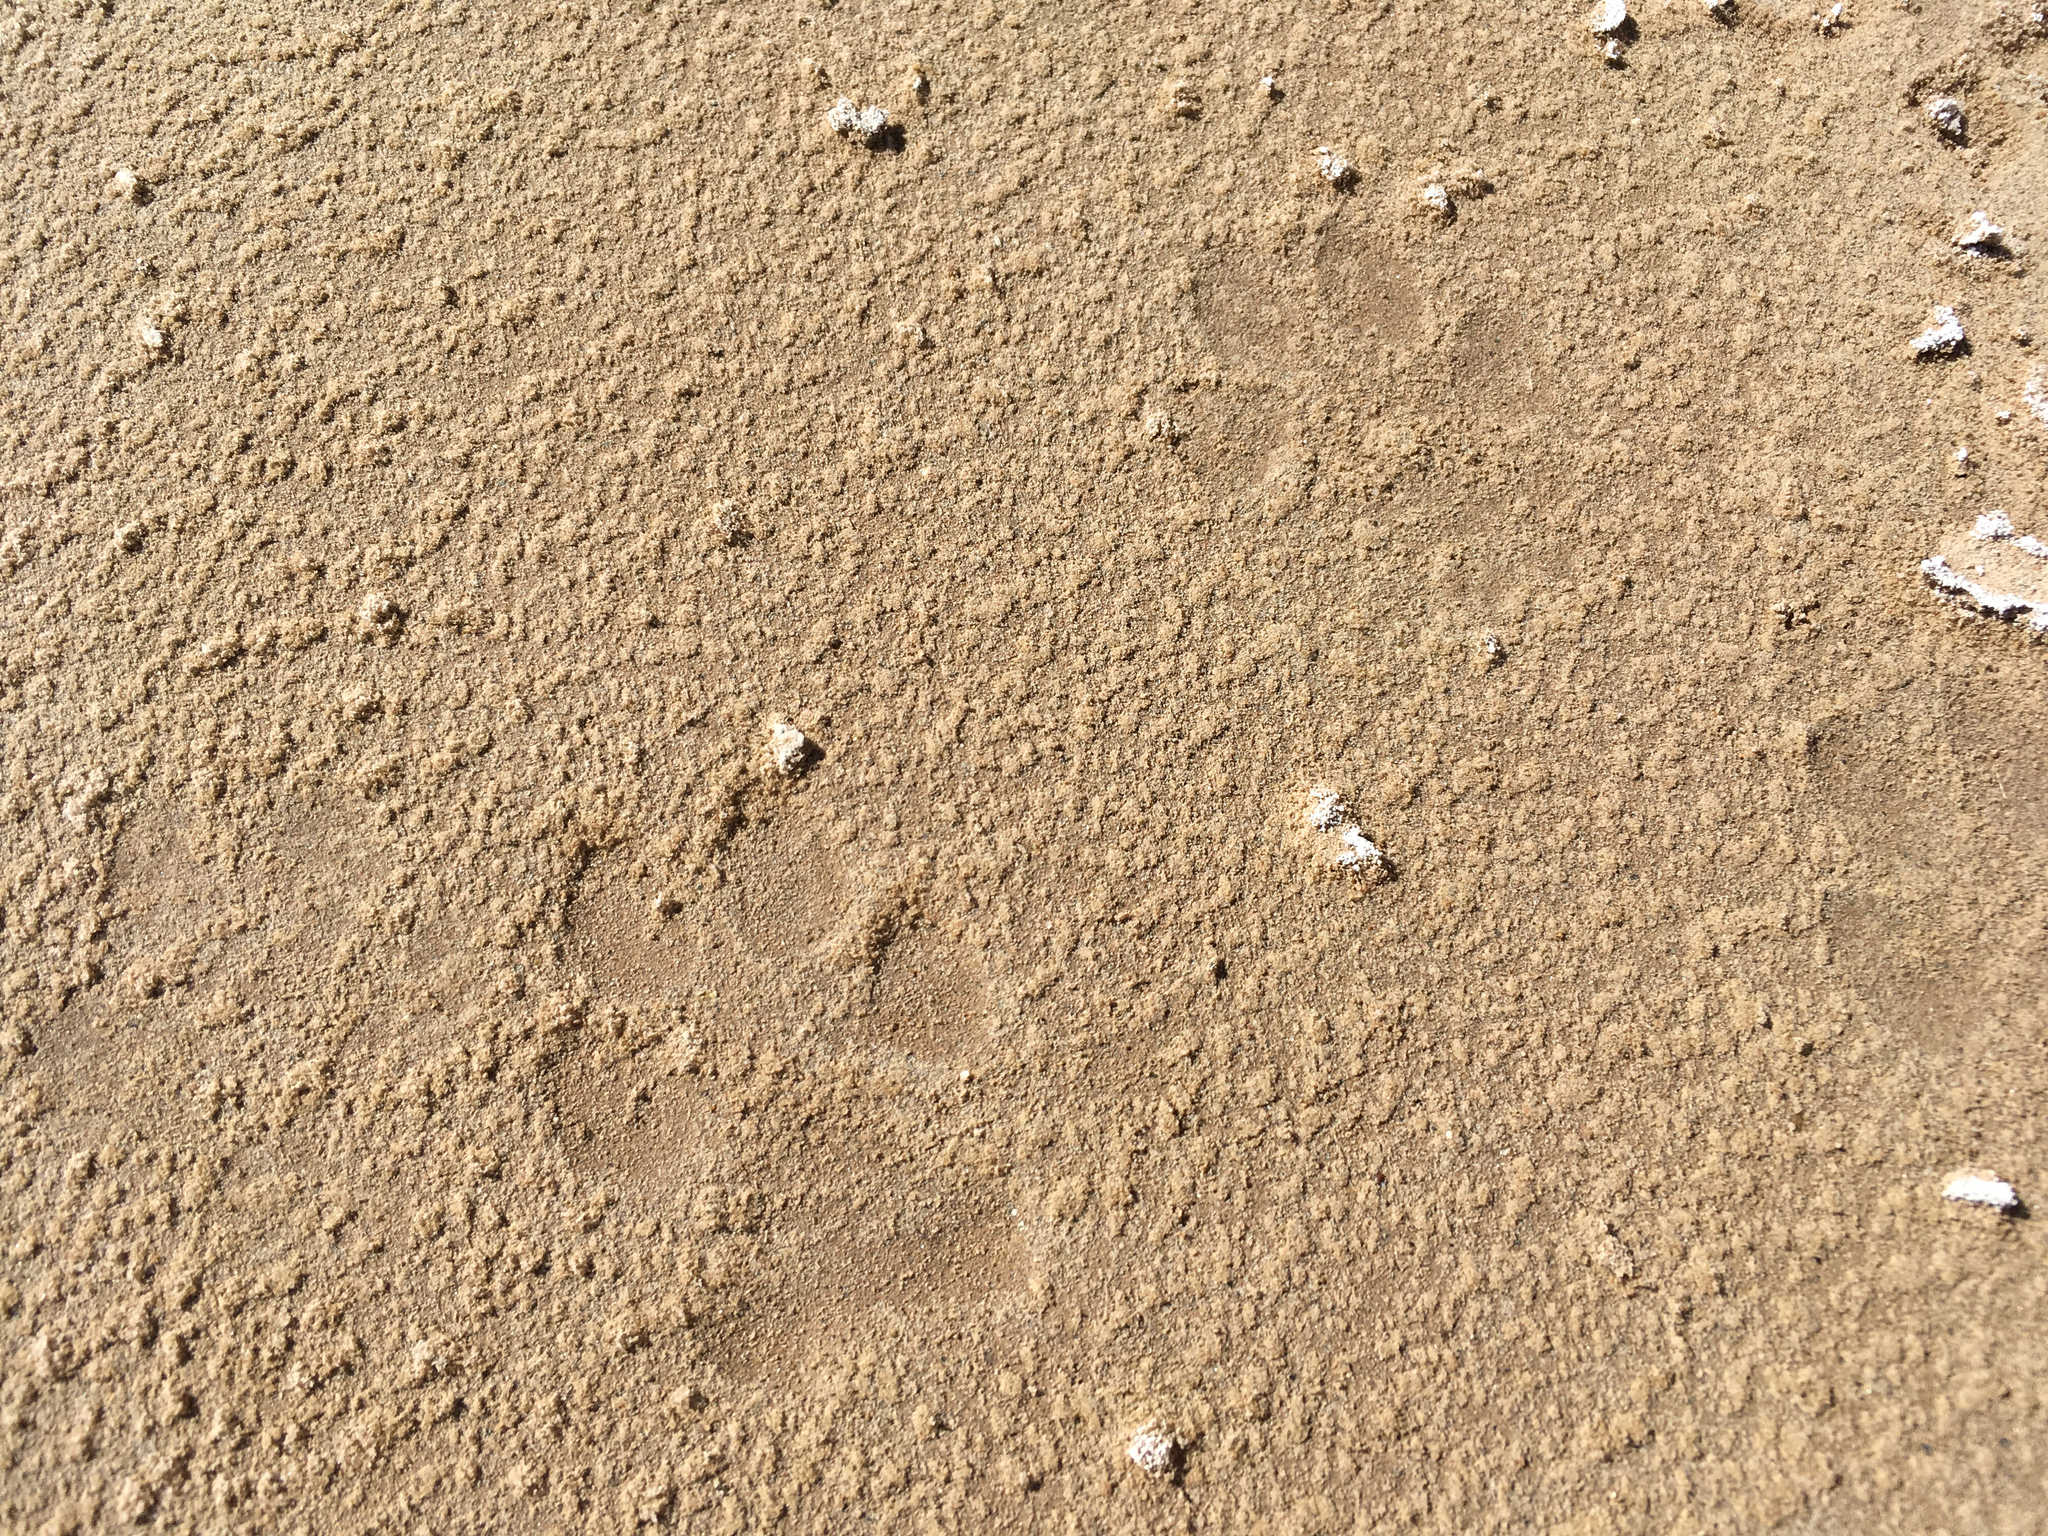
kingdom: Animalia
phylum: Chordata
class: Mammalia
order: Carnivora
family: Canidae
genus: Canis
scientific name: Canis latrans
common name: Coyote
